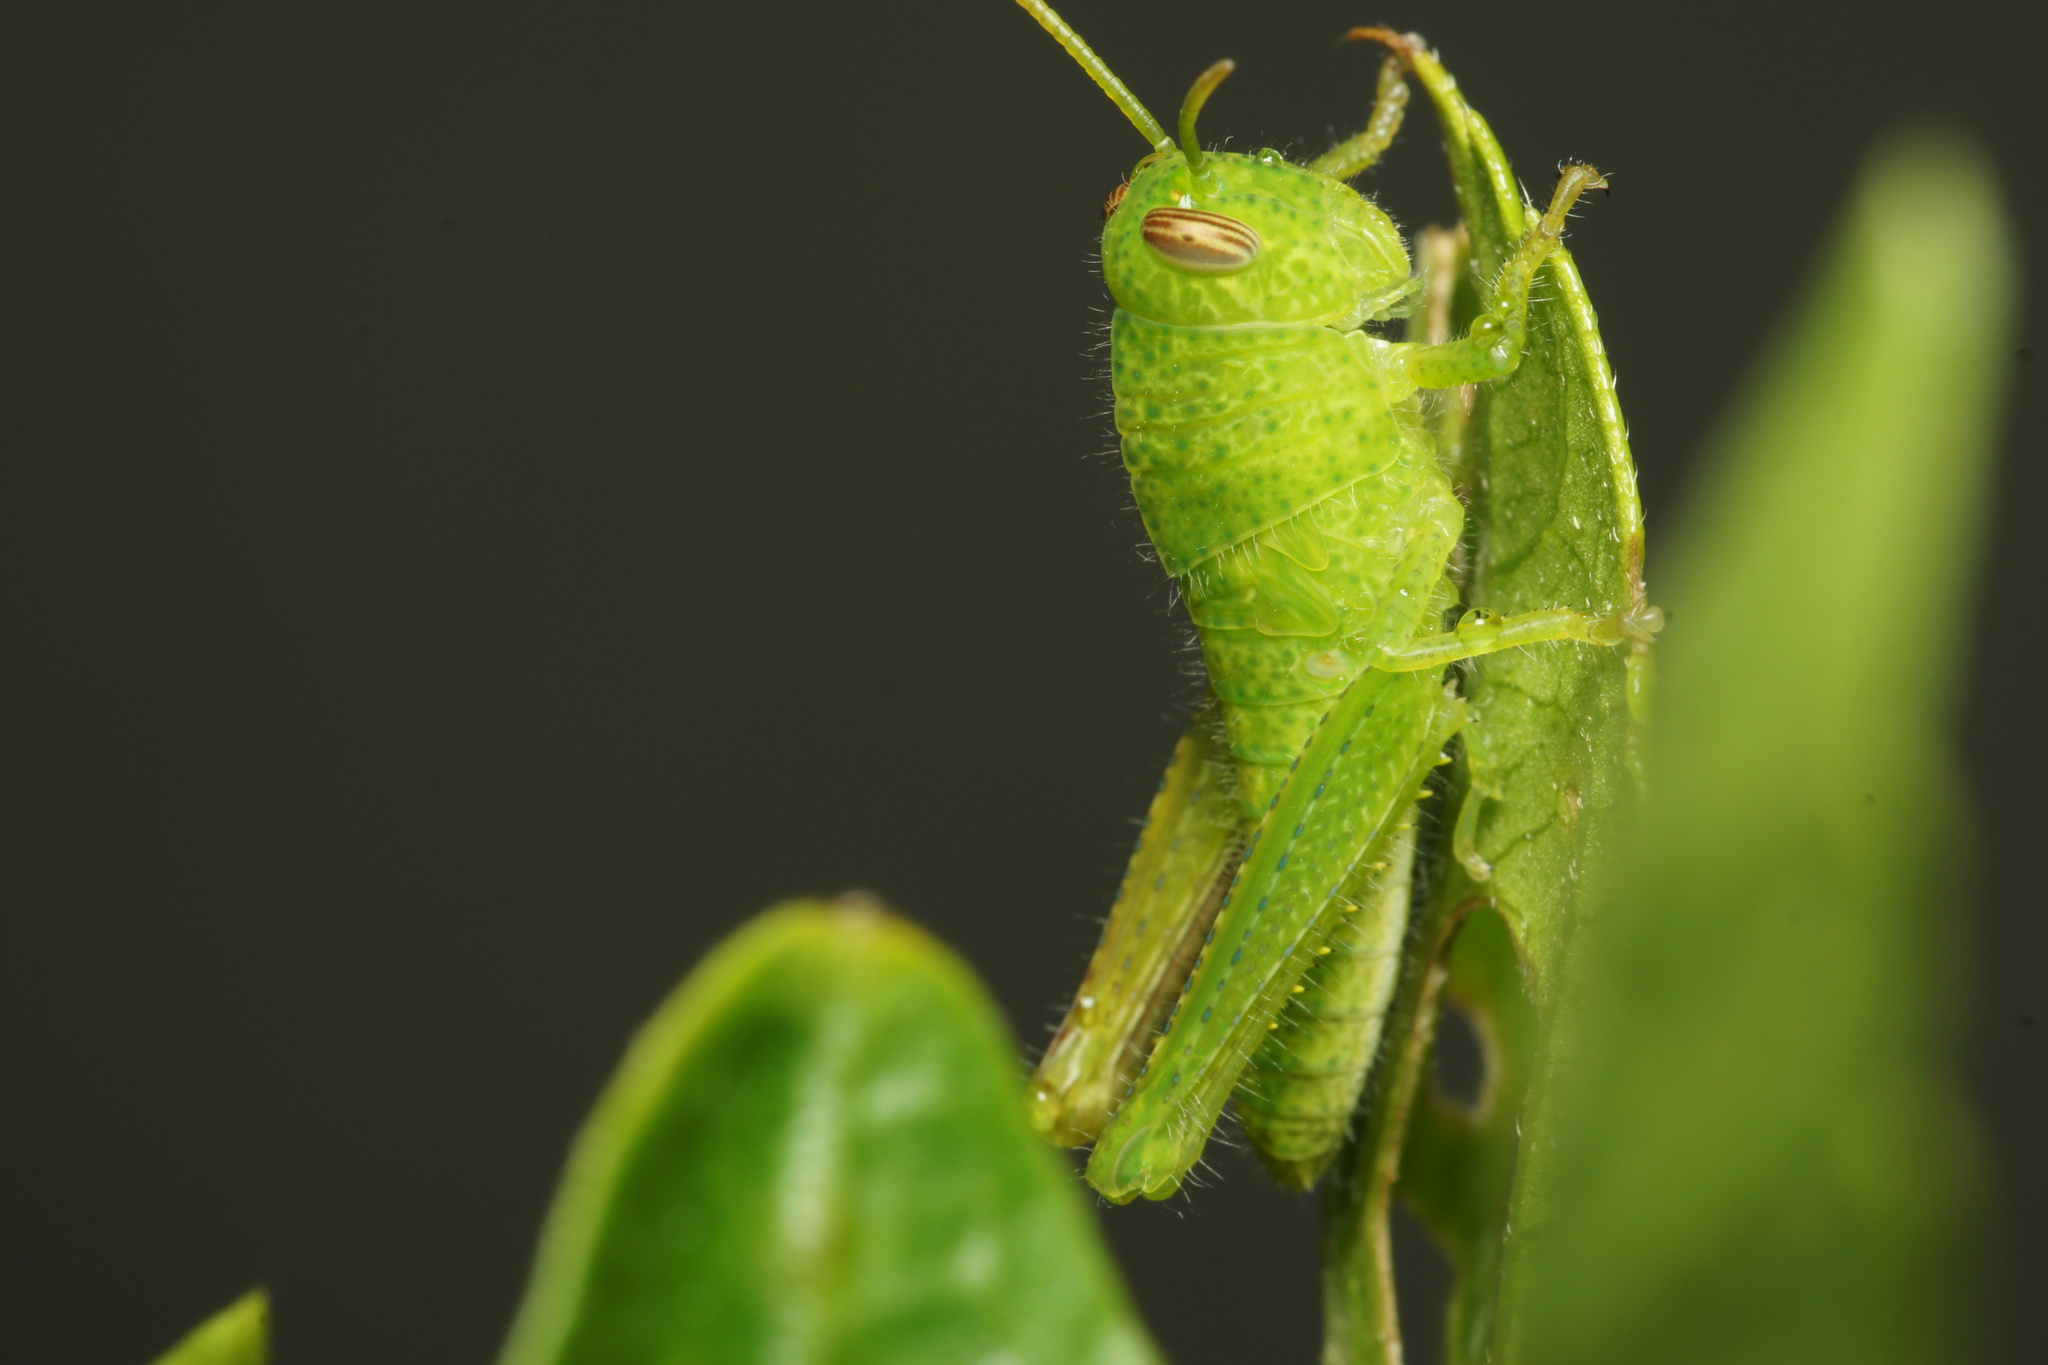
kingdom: Animalia
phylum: Arthropoda
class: Insecta
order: Orthoptera
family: Acrididae
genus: Schistocerca
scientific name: Schistocerca flavofasciata
